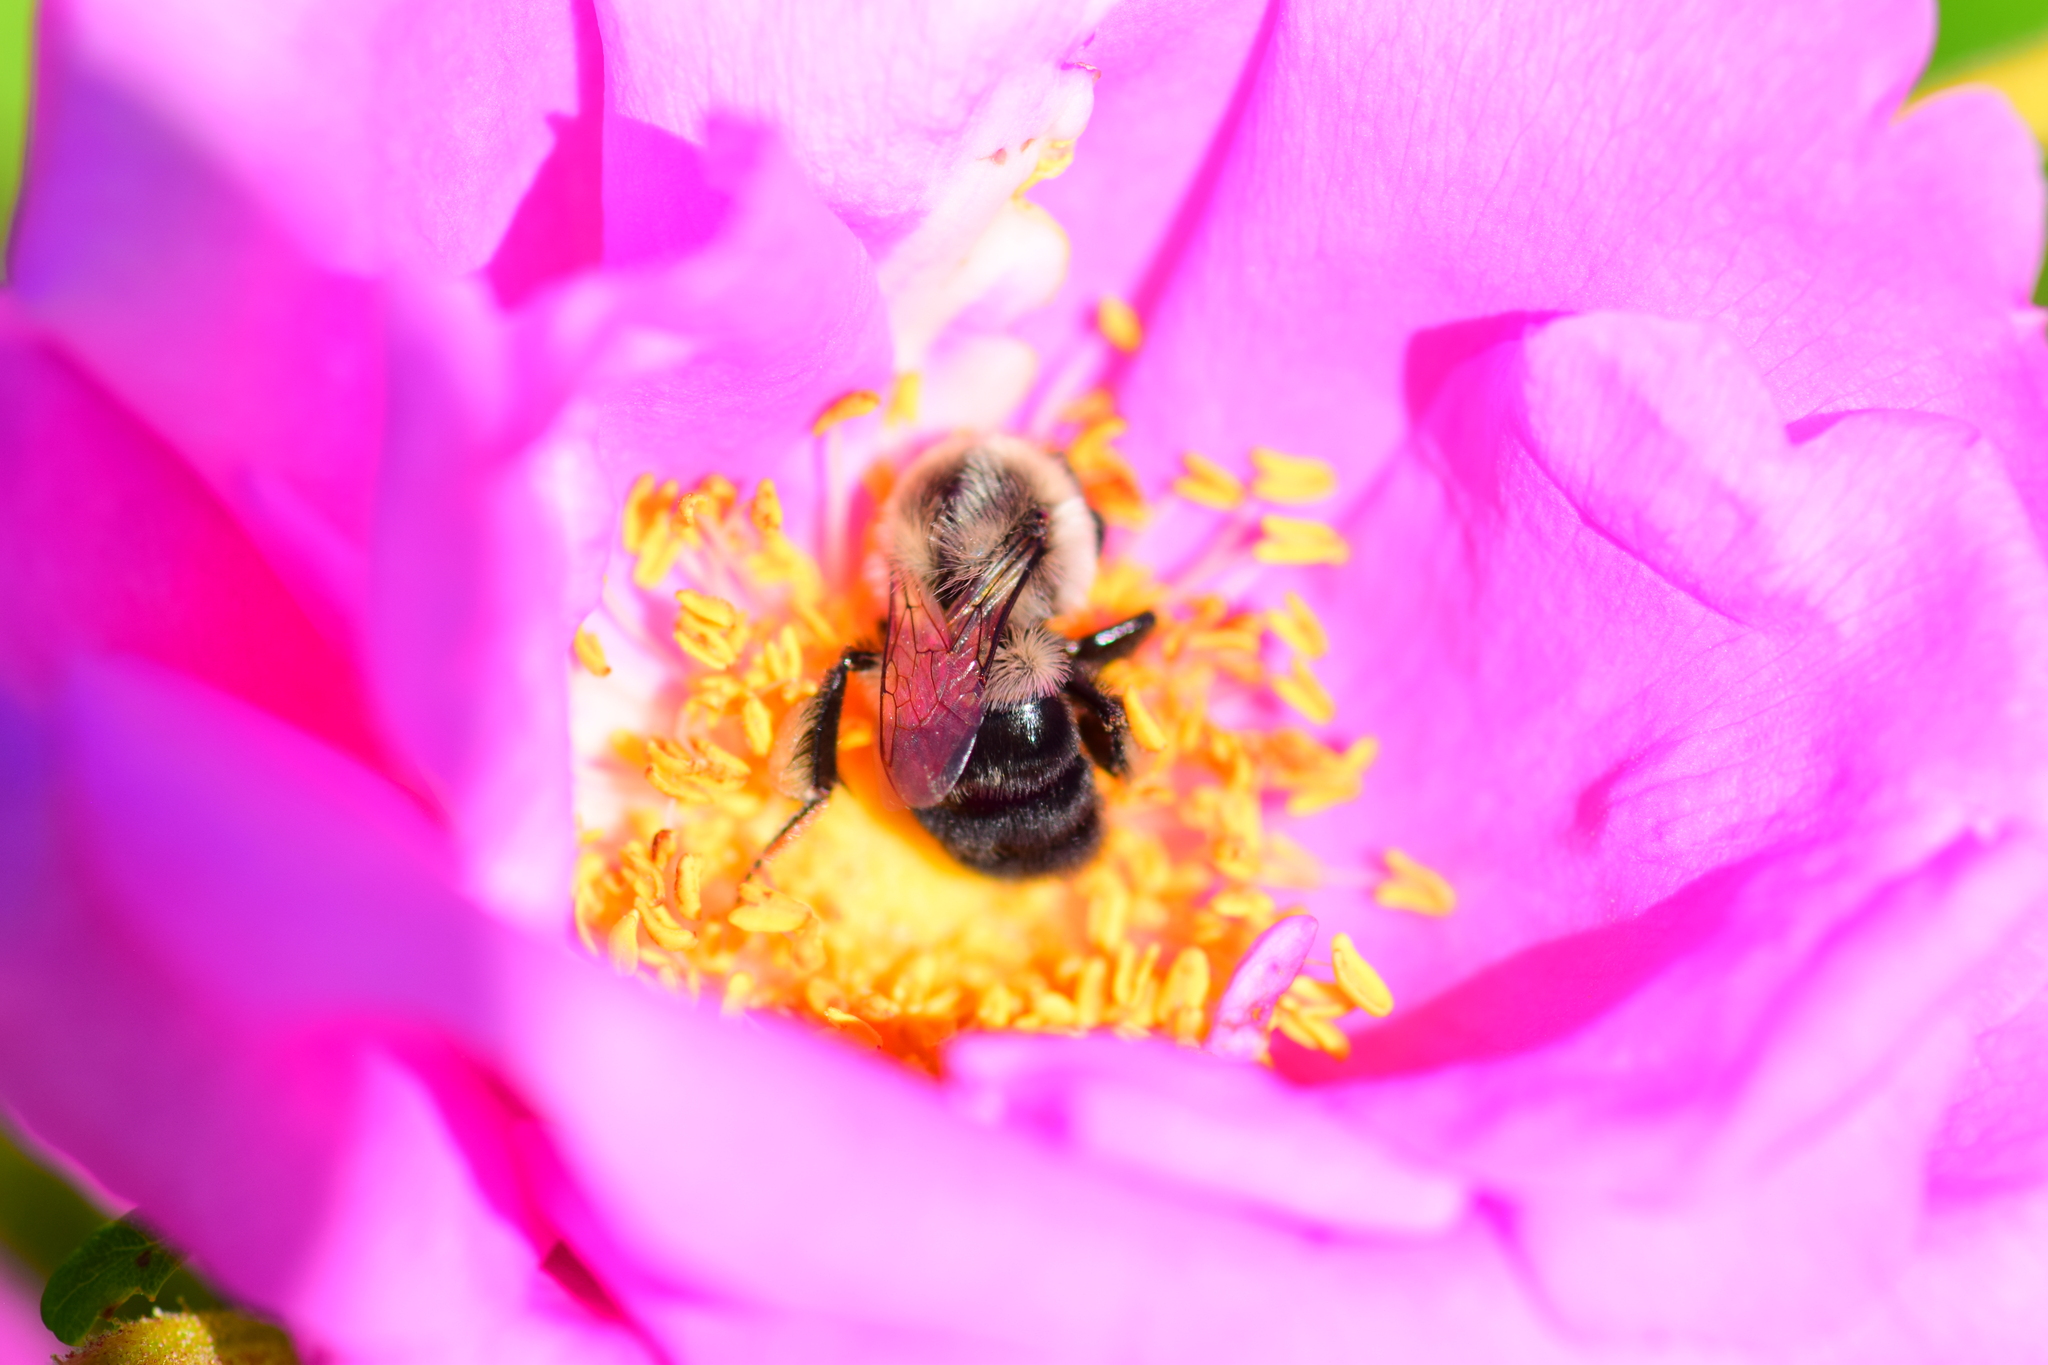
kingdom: Animalia
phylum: Arthropoda
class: Insecta
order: Hymenoptera
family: Apidae
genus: Bombus
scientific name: Bombus impatiens
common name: Common eastern bumble bee
